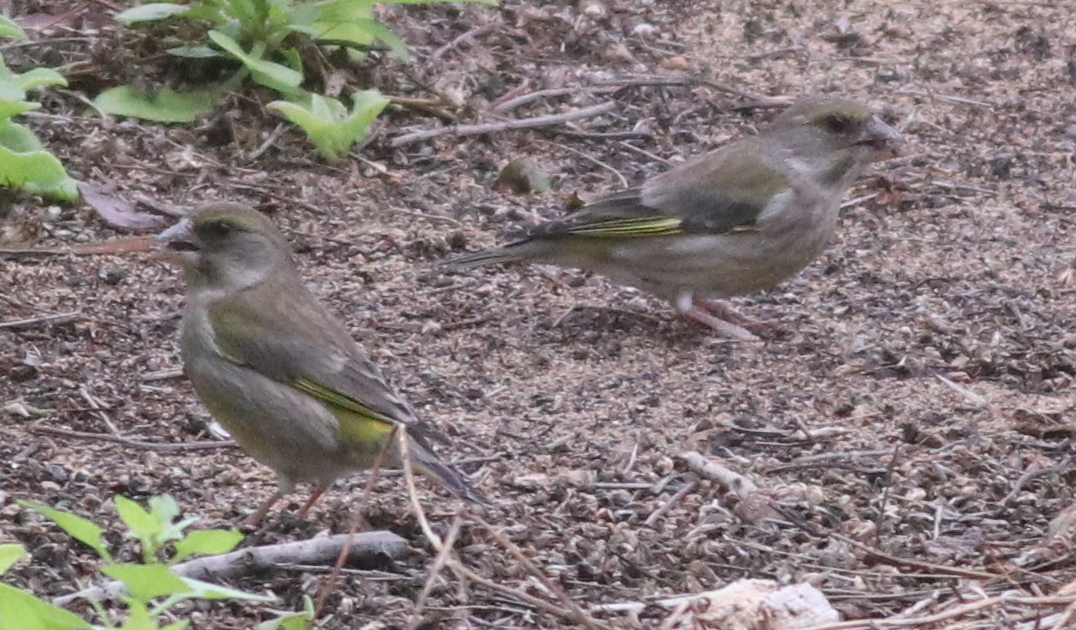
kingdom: Plantae
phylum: Tracheophyta
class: Liliopsida
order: Poales
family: Poaceae
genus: Chloris
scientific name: Chloris chloris
